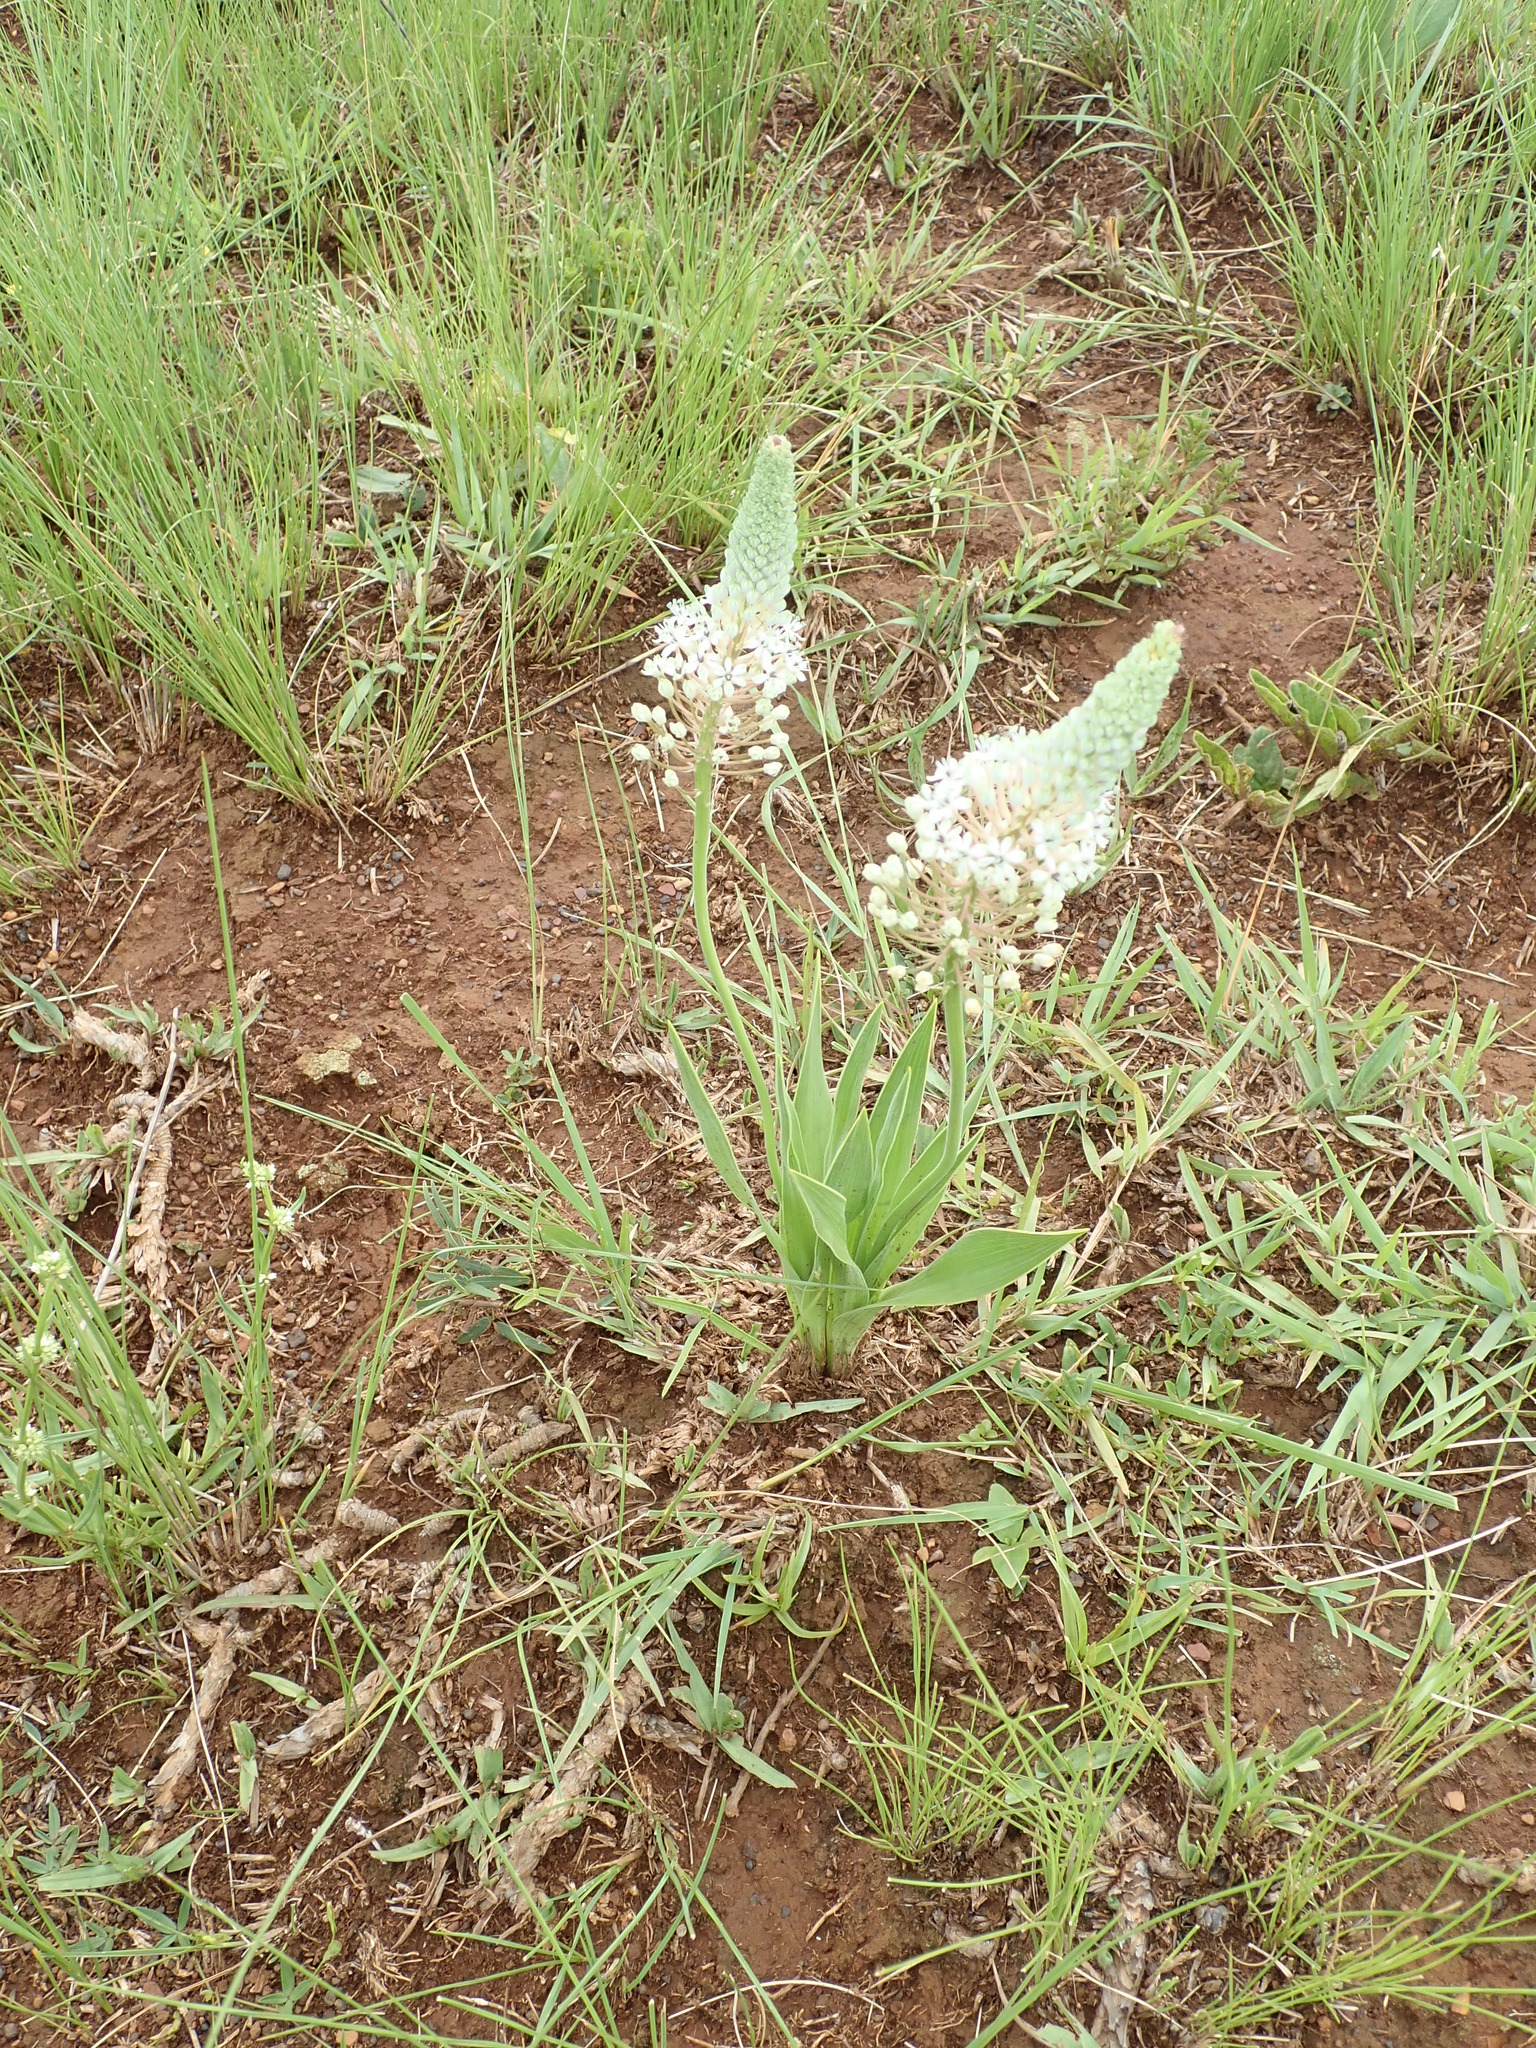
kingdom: Plantae
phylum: Tracheophyta
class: Liliopsida
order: Asparagales
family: Asparagaceae
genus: Schizocarphus
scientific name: Schizocarphus nervosus
